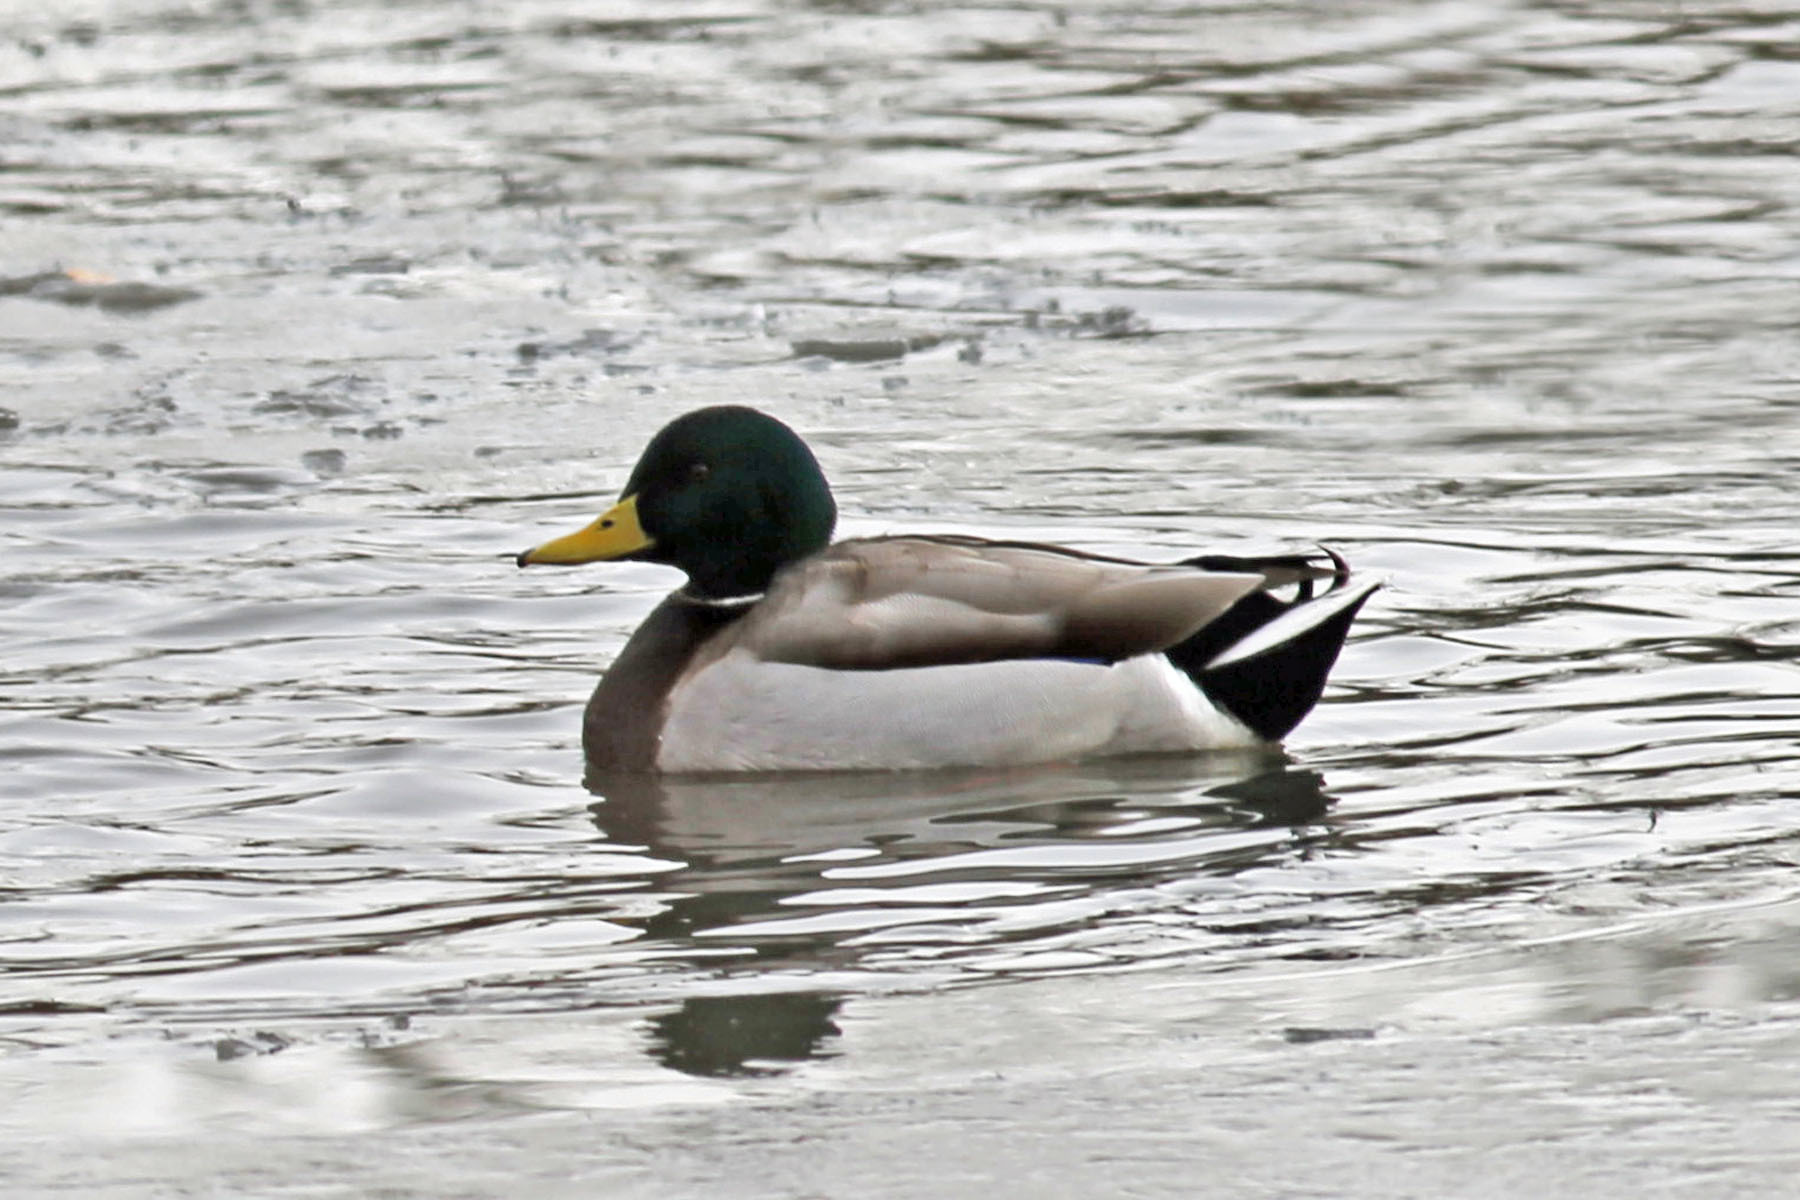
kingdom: Animalia
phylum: Chordata
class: Aves
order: Anseriformes
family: Anatidae
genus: Anas
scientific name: Anas platyrhynchos
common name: Mallard
